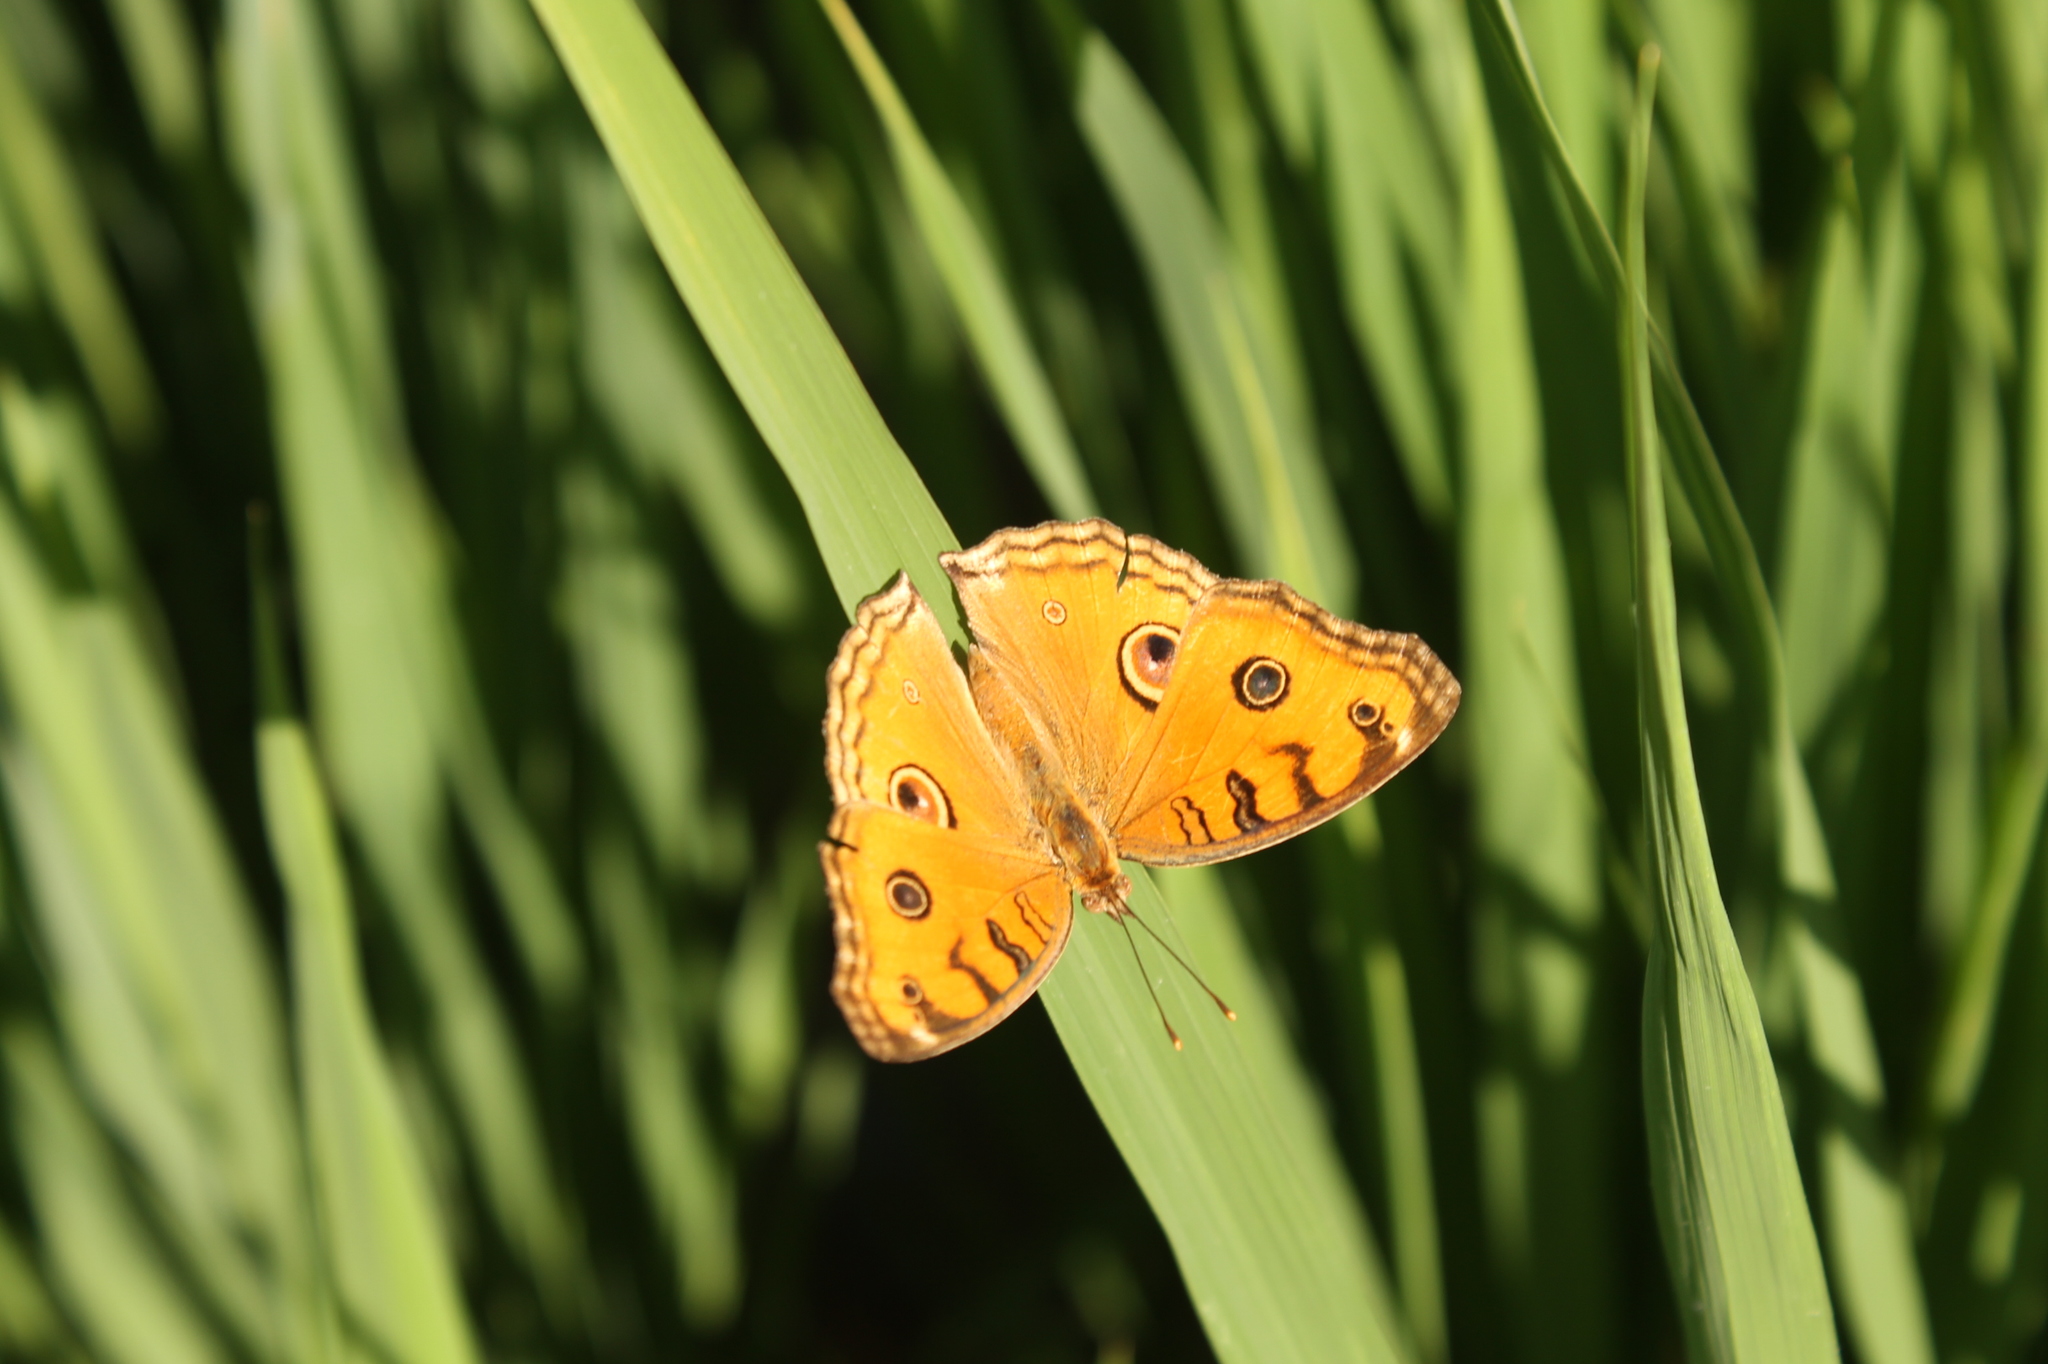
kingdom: Animalia
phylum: Arthropoda
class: Insecta
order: Lepidoptera
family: Nymphalidae
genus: Junonia
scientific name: Junonia almana
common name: Peacock pansy
